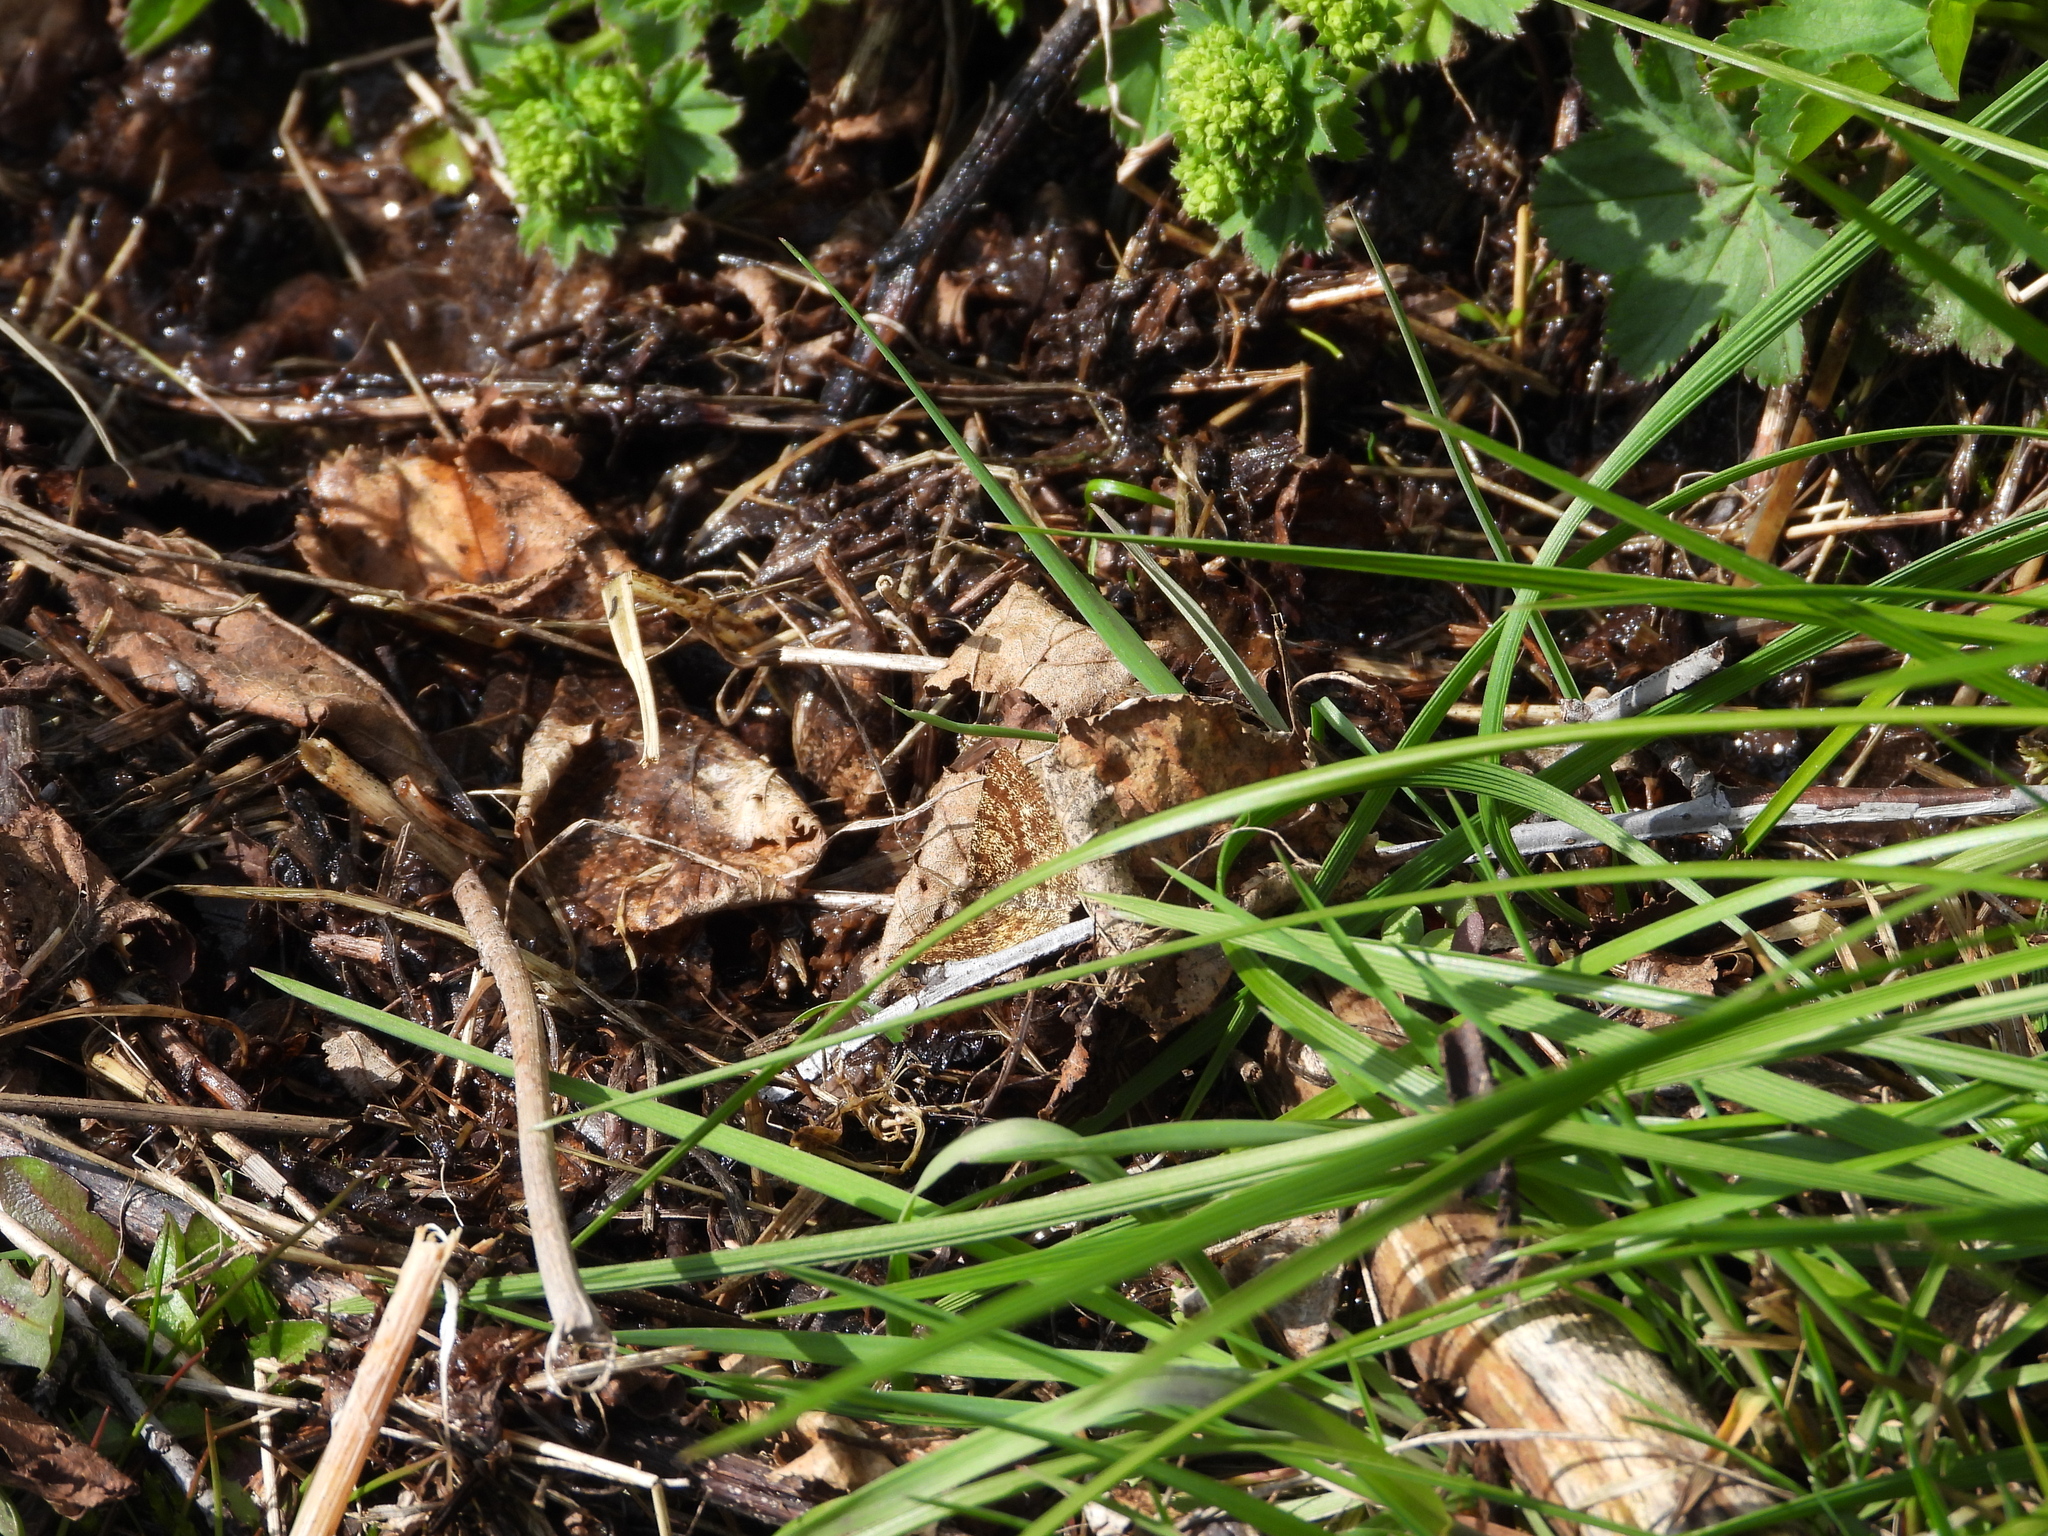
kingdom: Animalia
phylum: Arthropoda
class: Insecta
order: Lepidoptera
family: Geometridae
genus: Ematurga
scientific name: Ematurga atomaria
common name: Common heath
